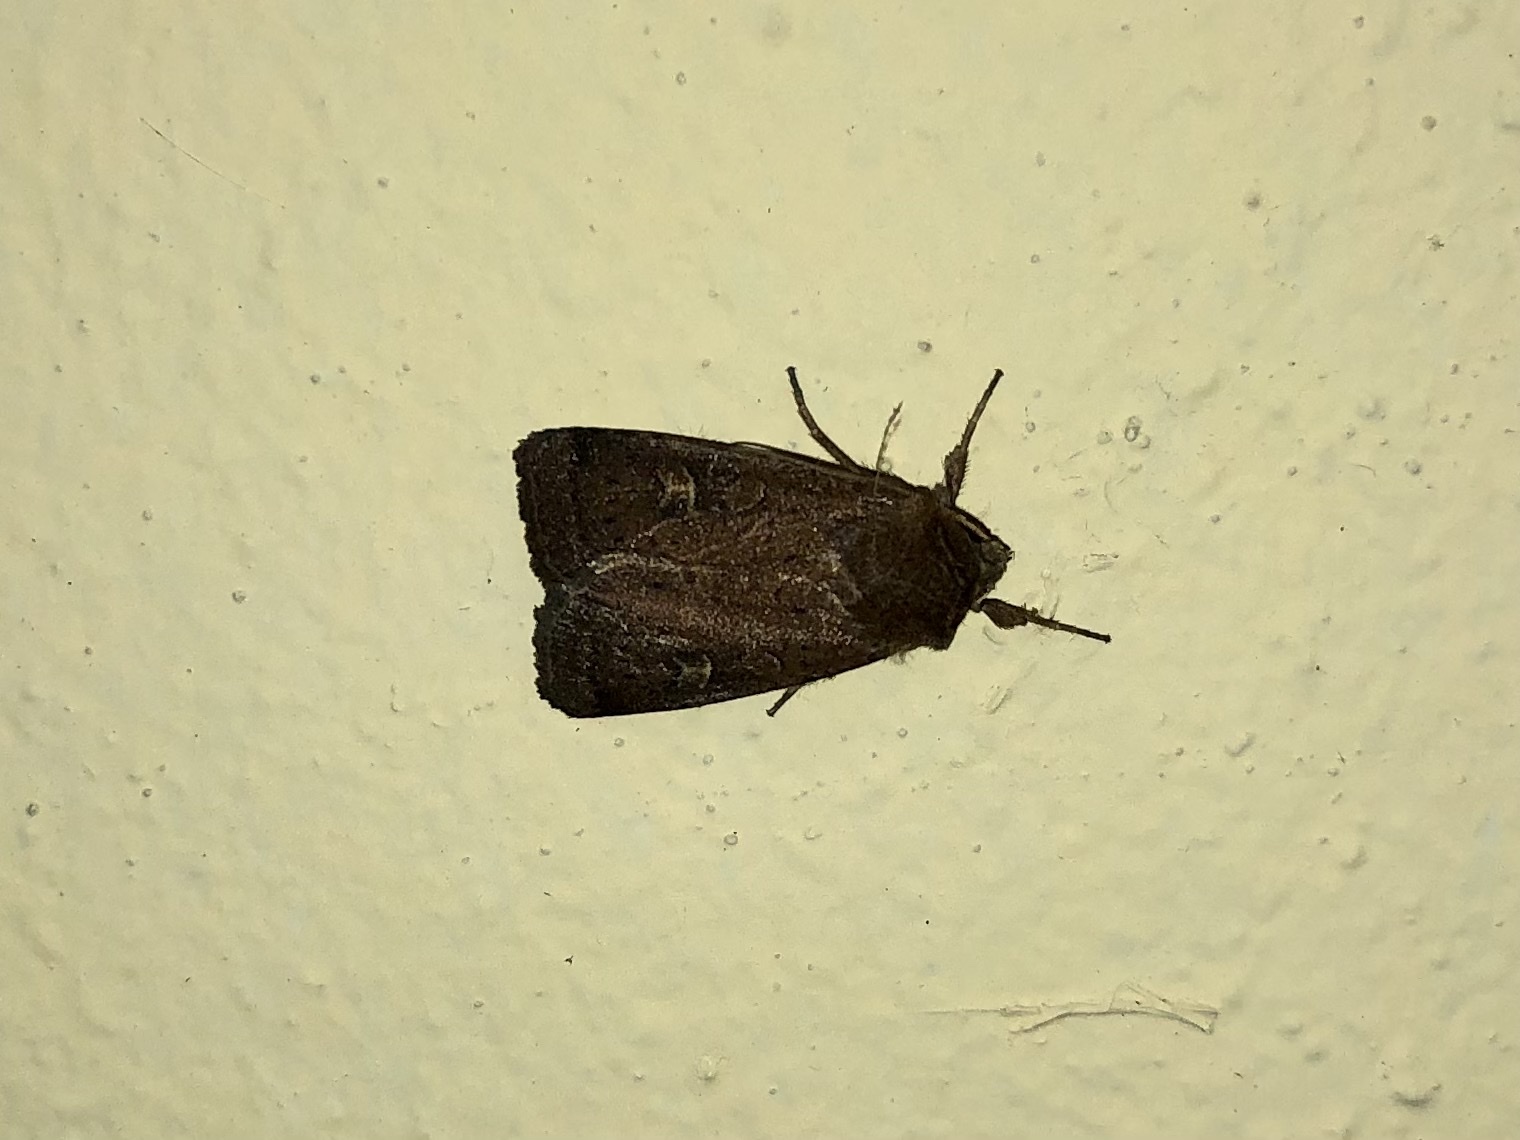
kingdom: Animalia
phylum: Arthropoda
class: Insecta
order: Lepidoptera
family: Noctuidae
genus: Xestia
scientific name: Xestia xanthographa
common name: Square-spot rustic
